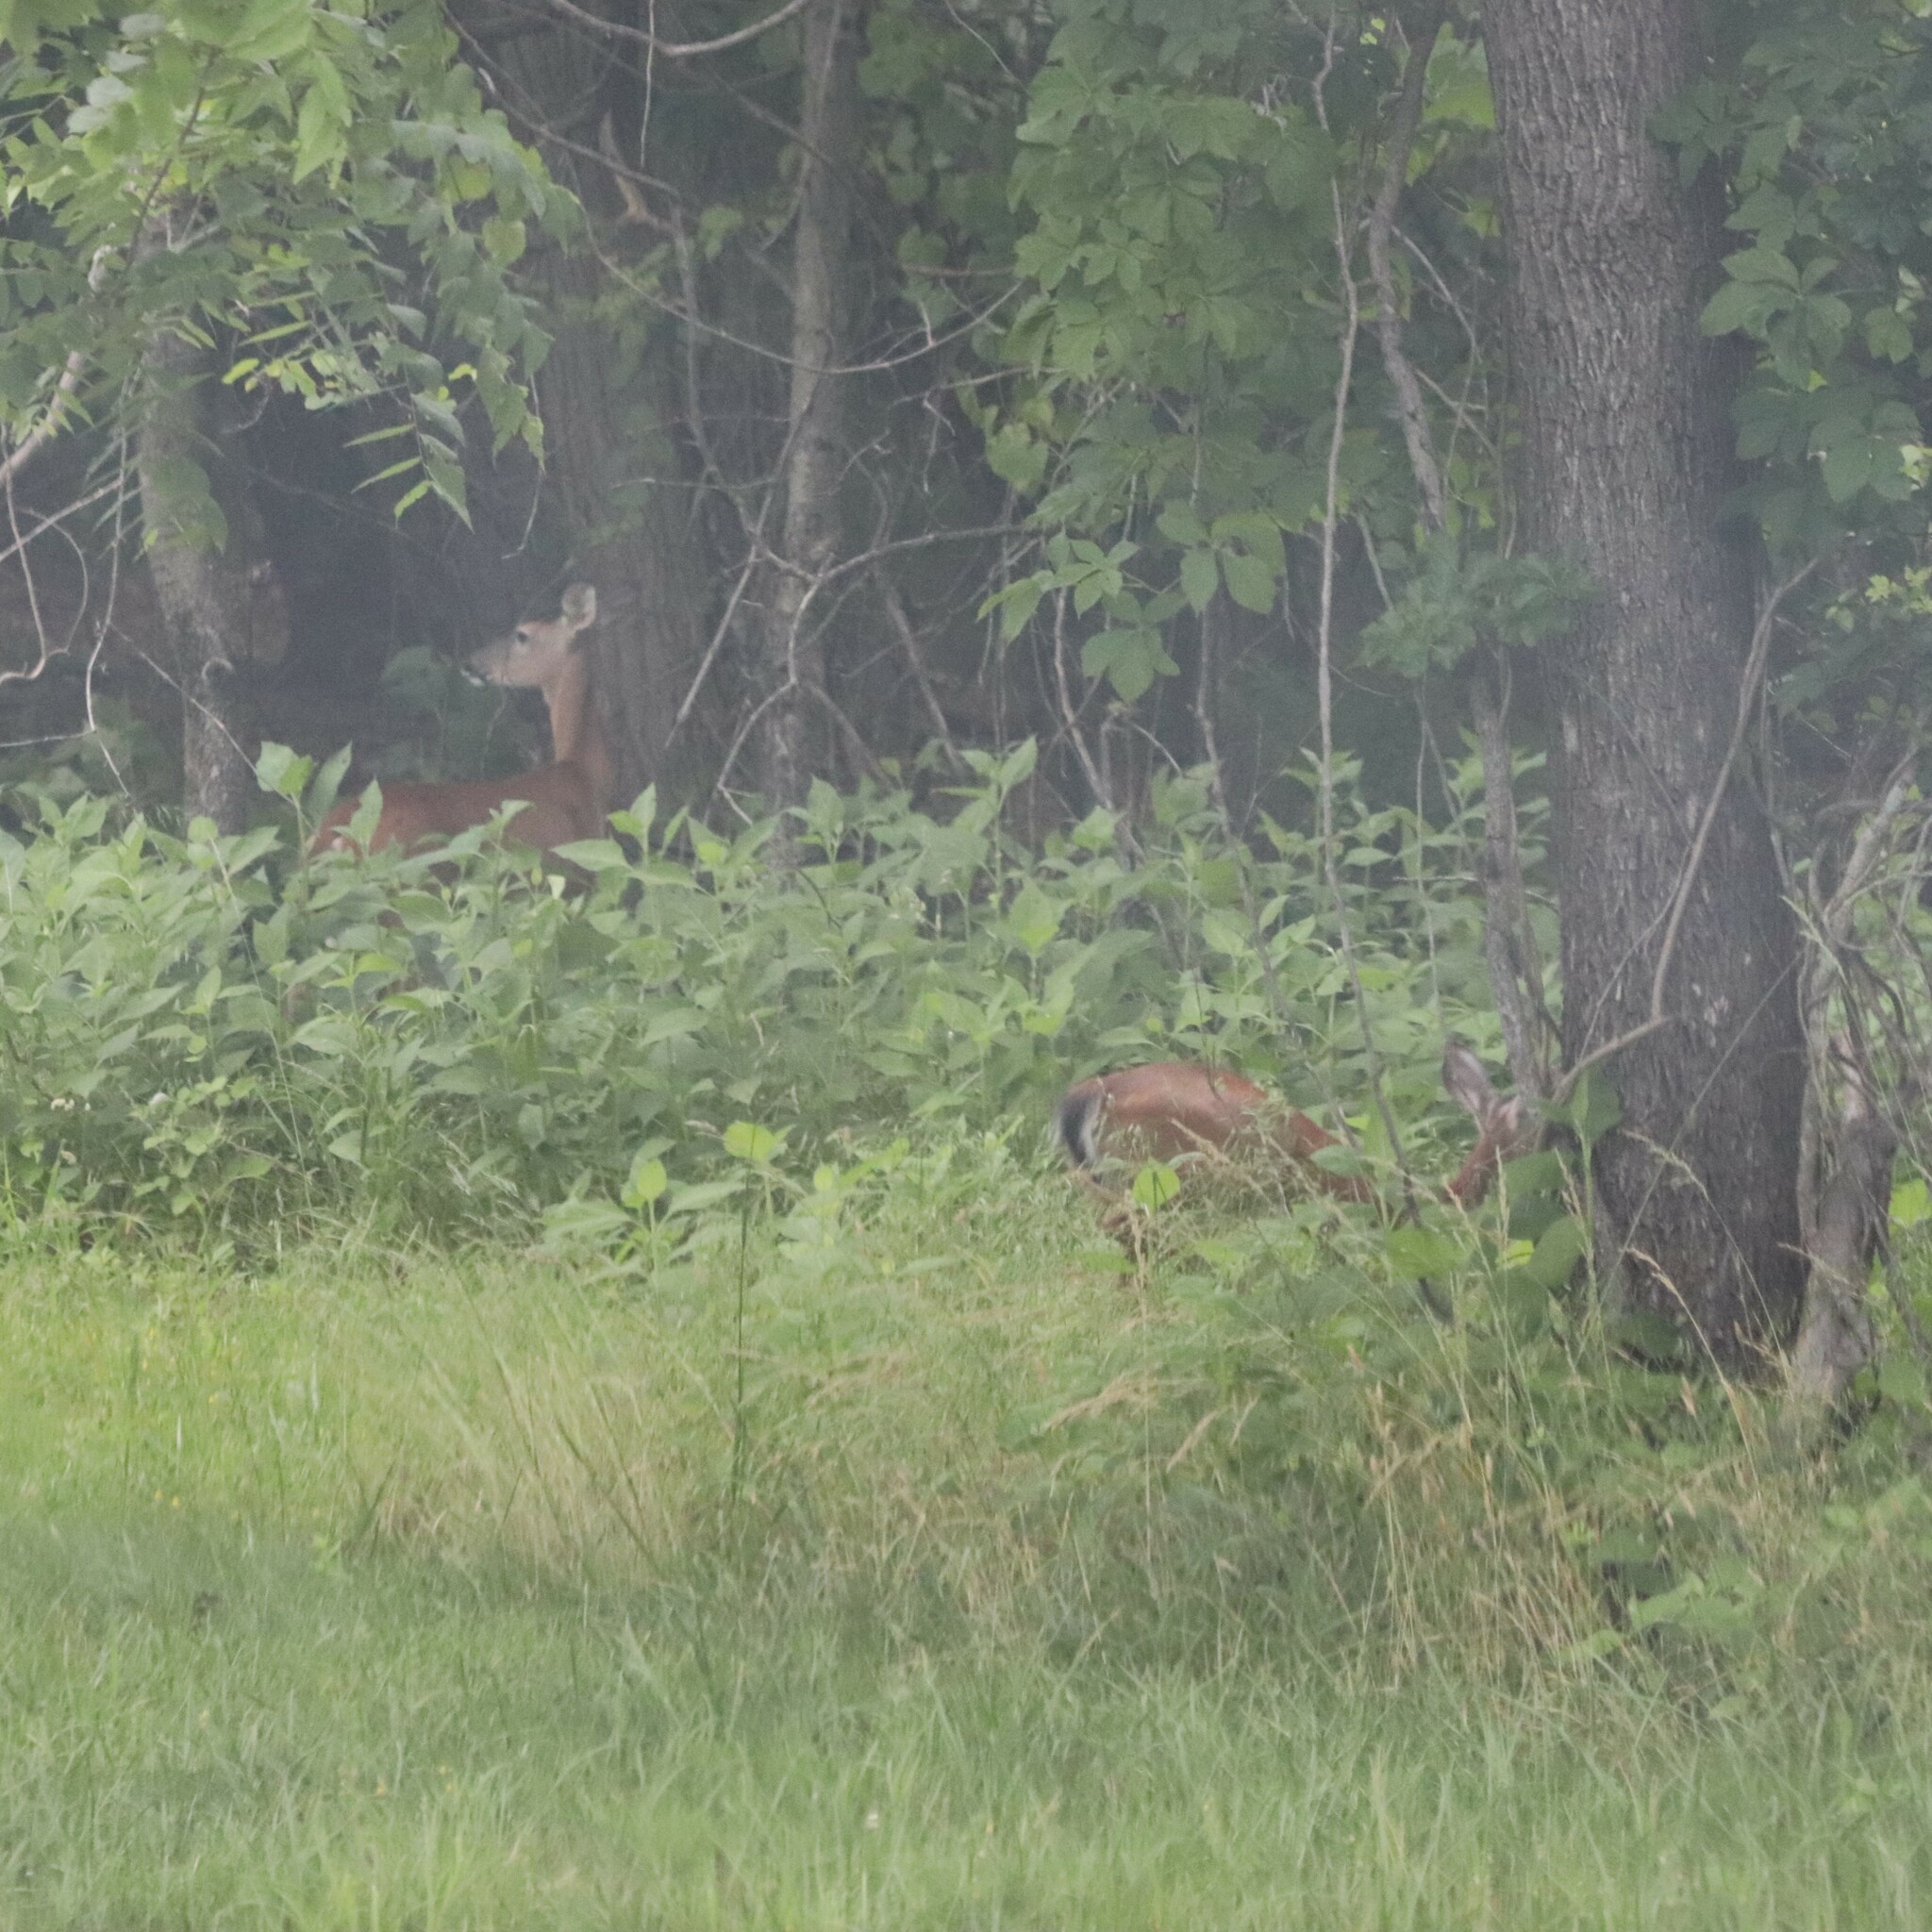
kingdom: Animalia
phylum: Chordata
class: Mammalia
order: Artiodactyla
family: Cervidae
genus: Odocoileus
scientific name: Odocoileus virginianus
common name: White-tailed deer
